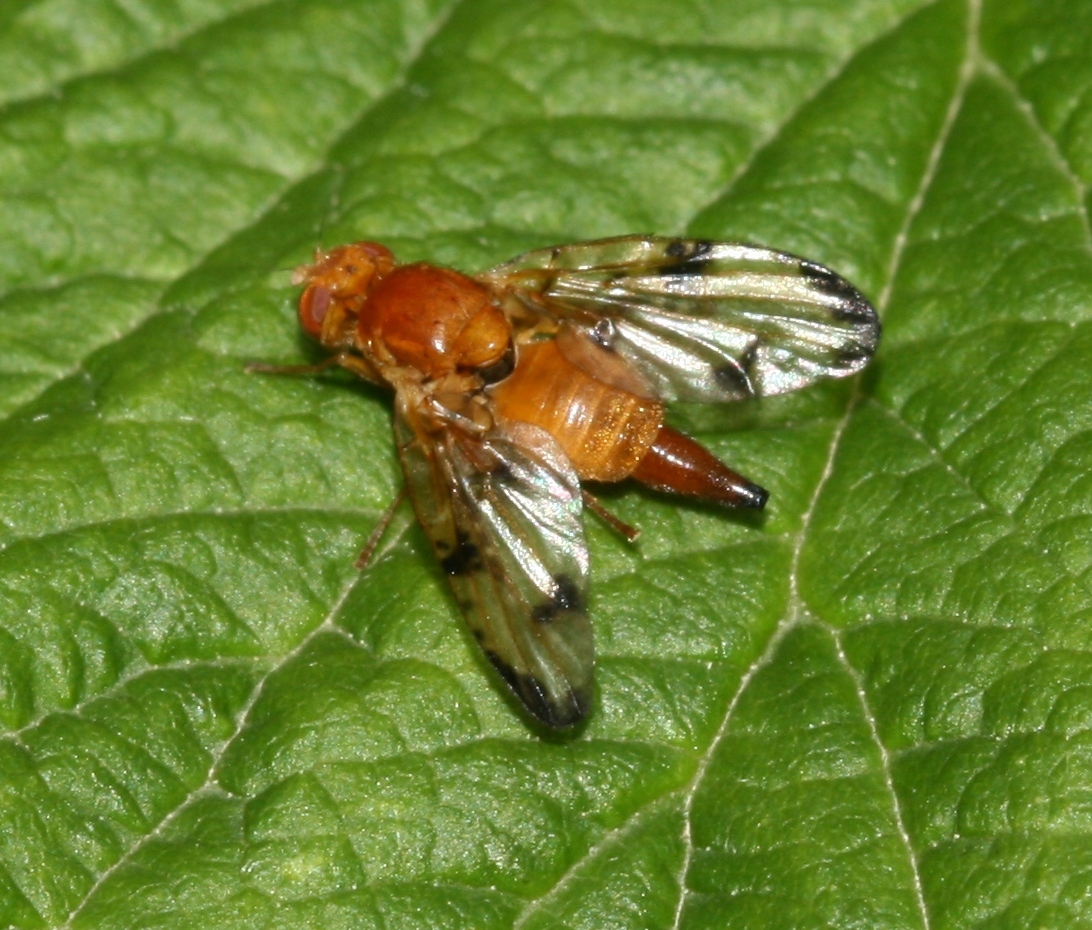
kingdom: Animalia
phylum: Arthropoda
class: Insecta
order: Diptera
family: Tephritidae
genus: Xyphosia
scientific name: Xyphosia miliaria
